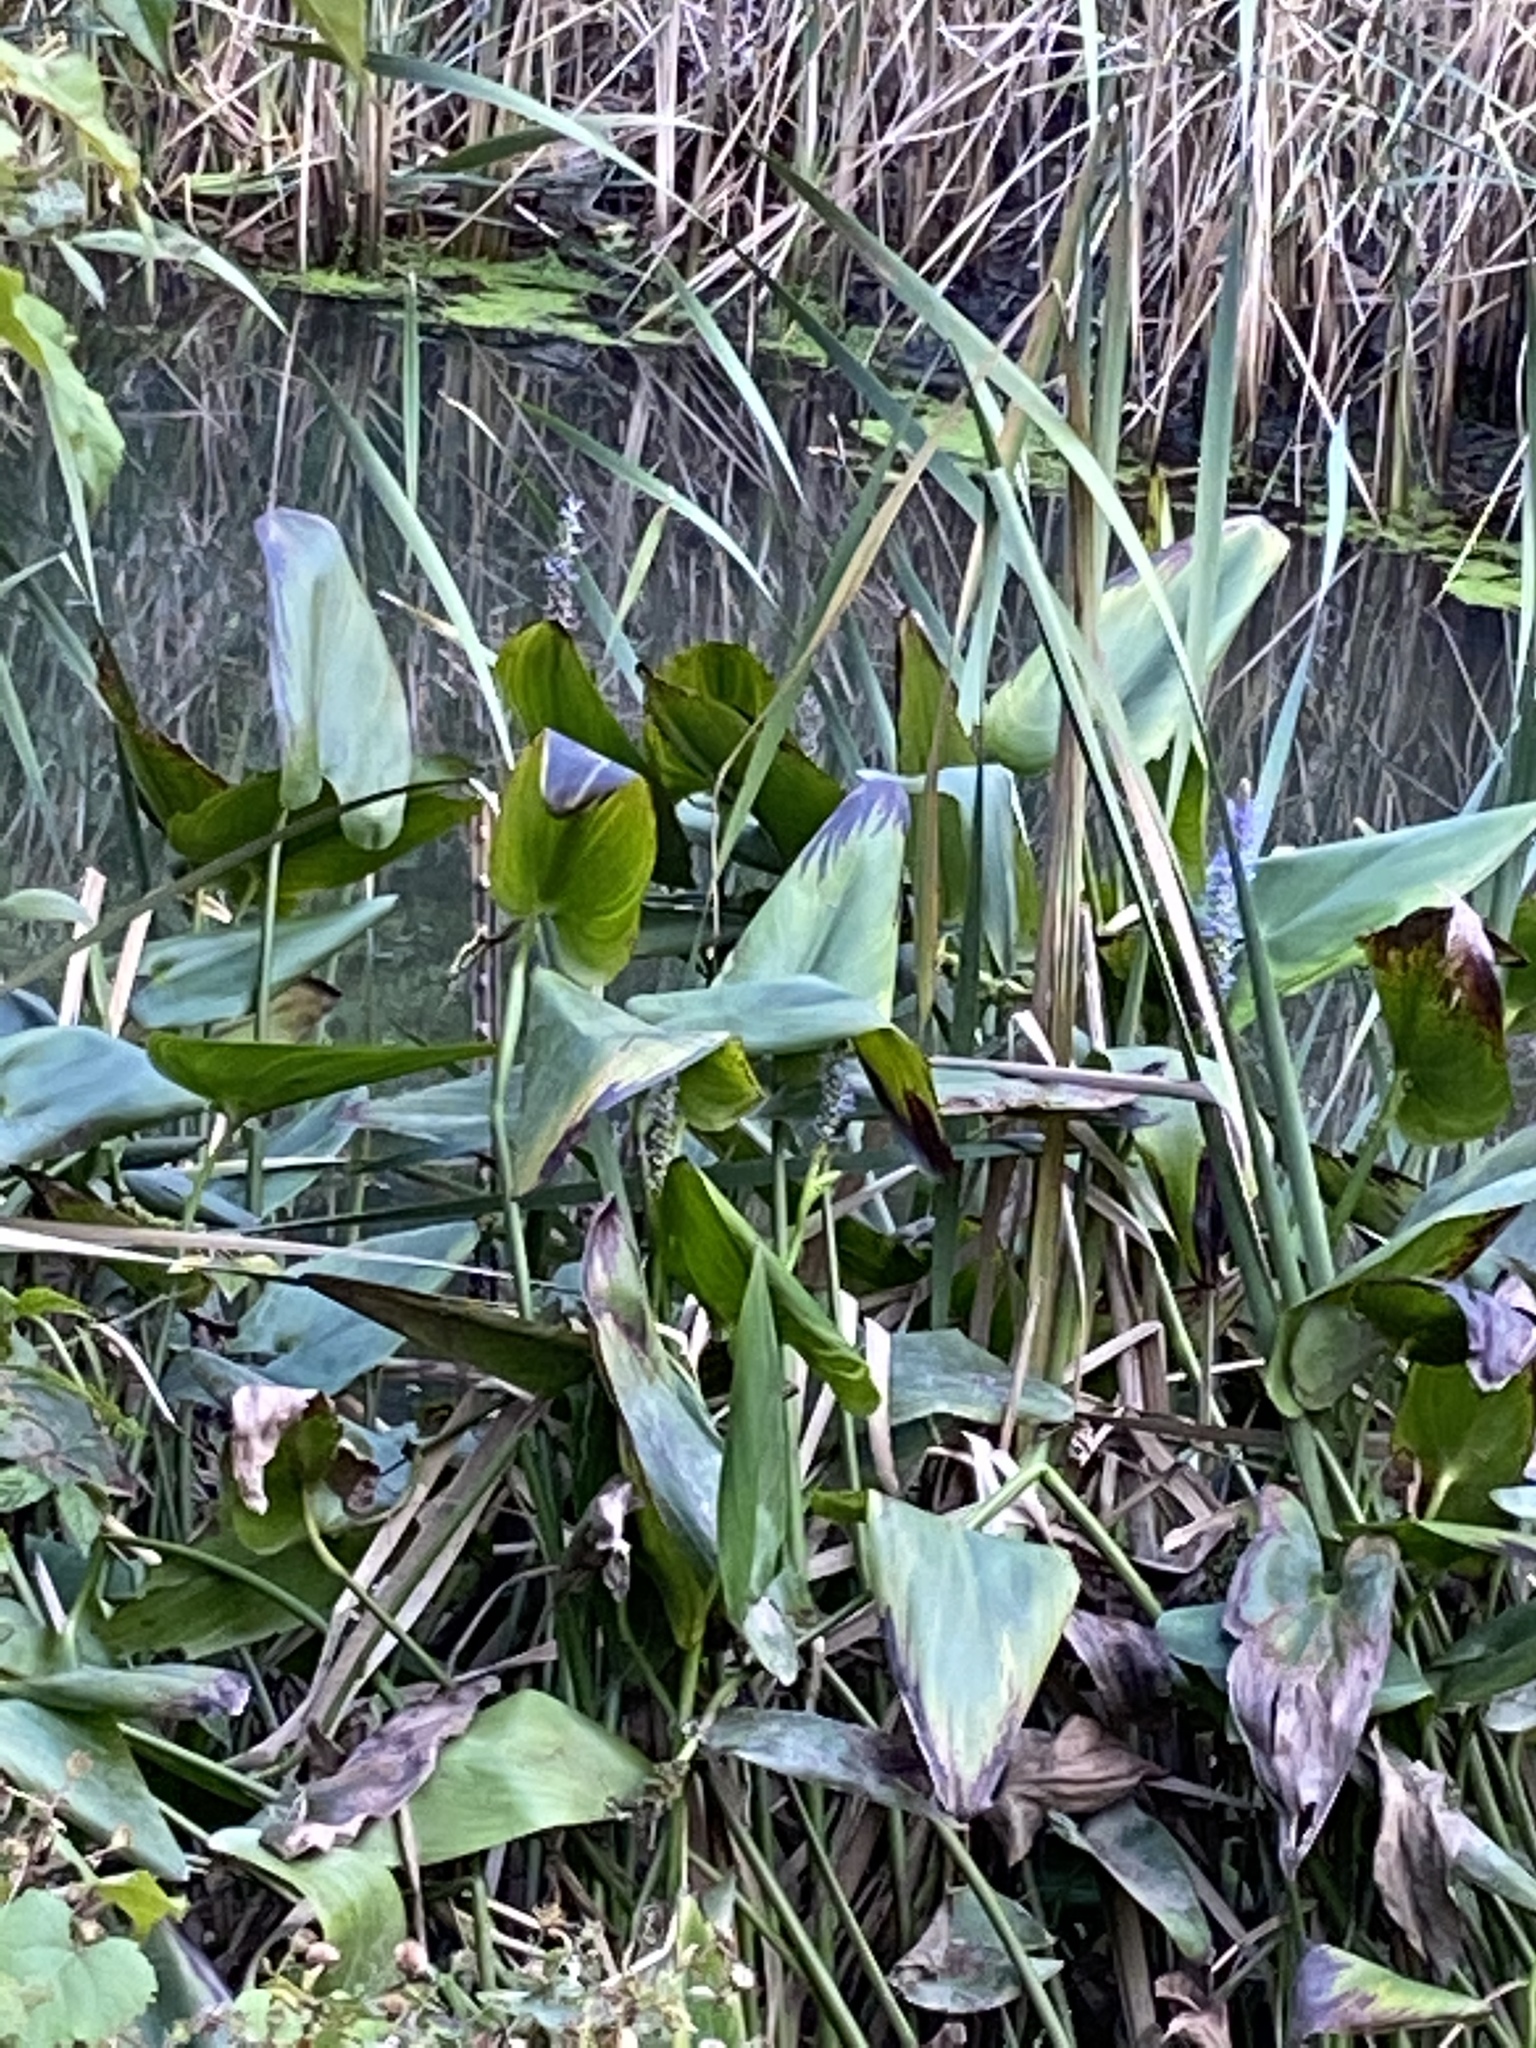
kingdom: Plantae
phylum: Tracheophyta
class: Liliopsida
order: Commelinales
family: Pontederiaceae
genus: Pontederia
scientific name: Pontederia cordata
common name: Pickerelweed
